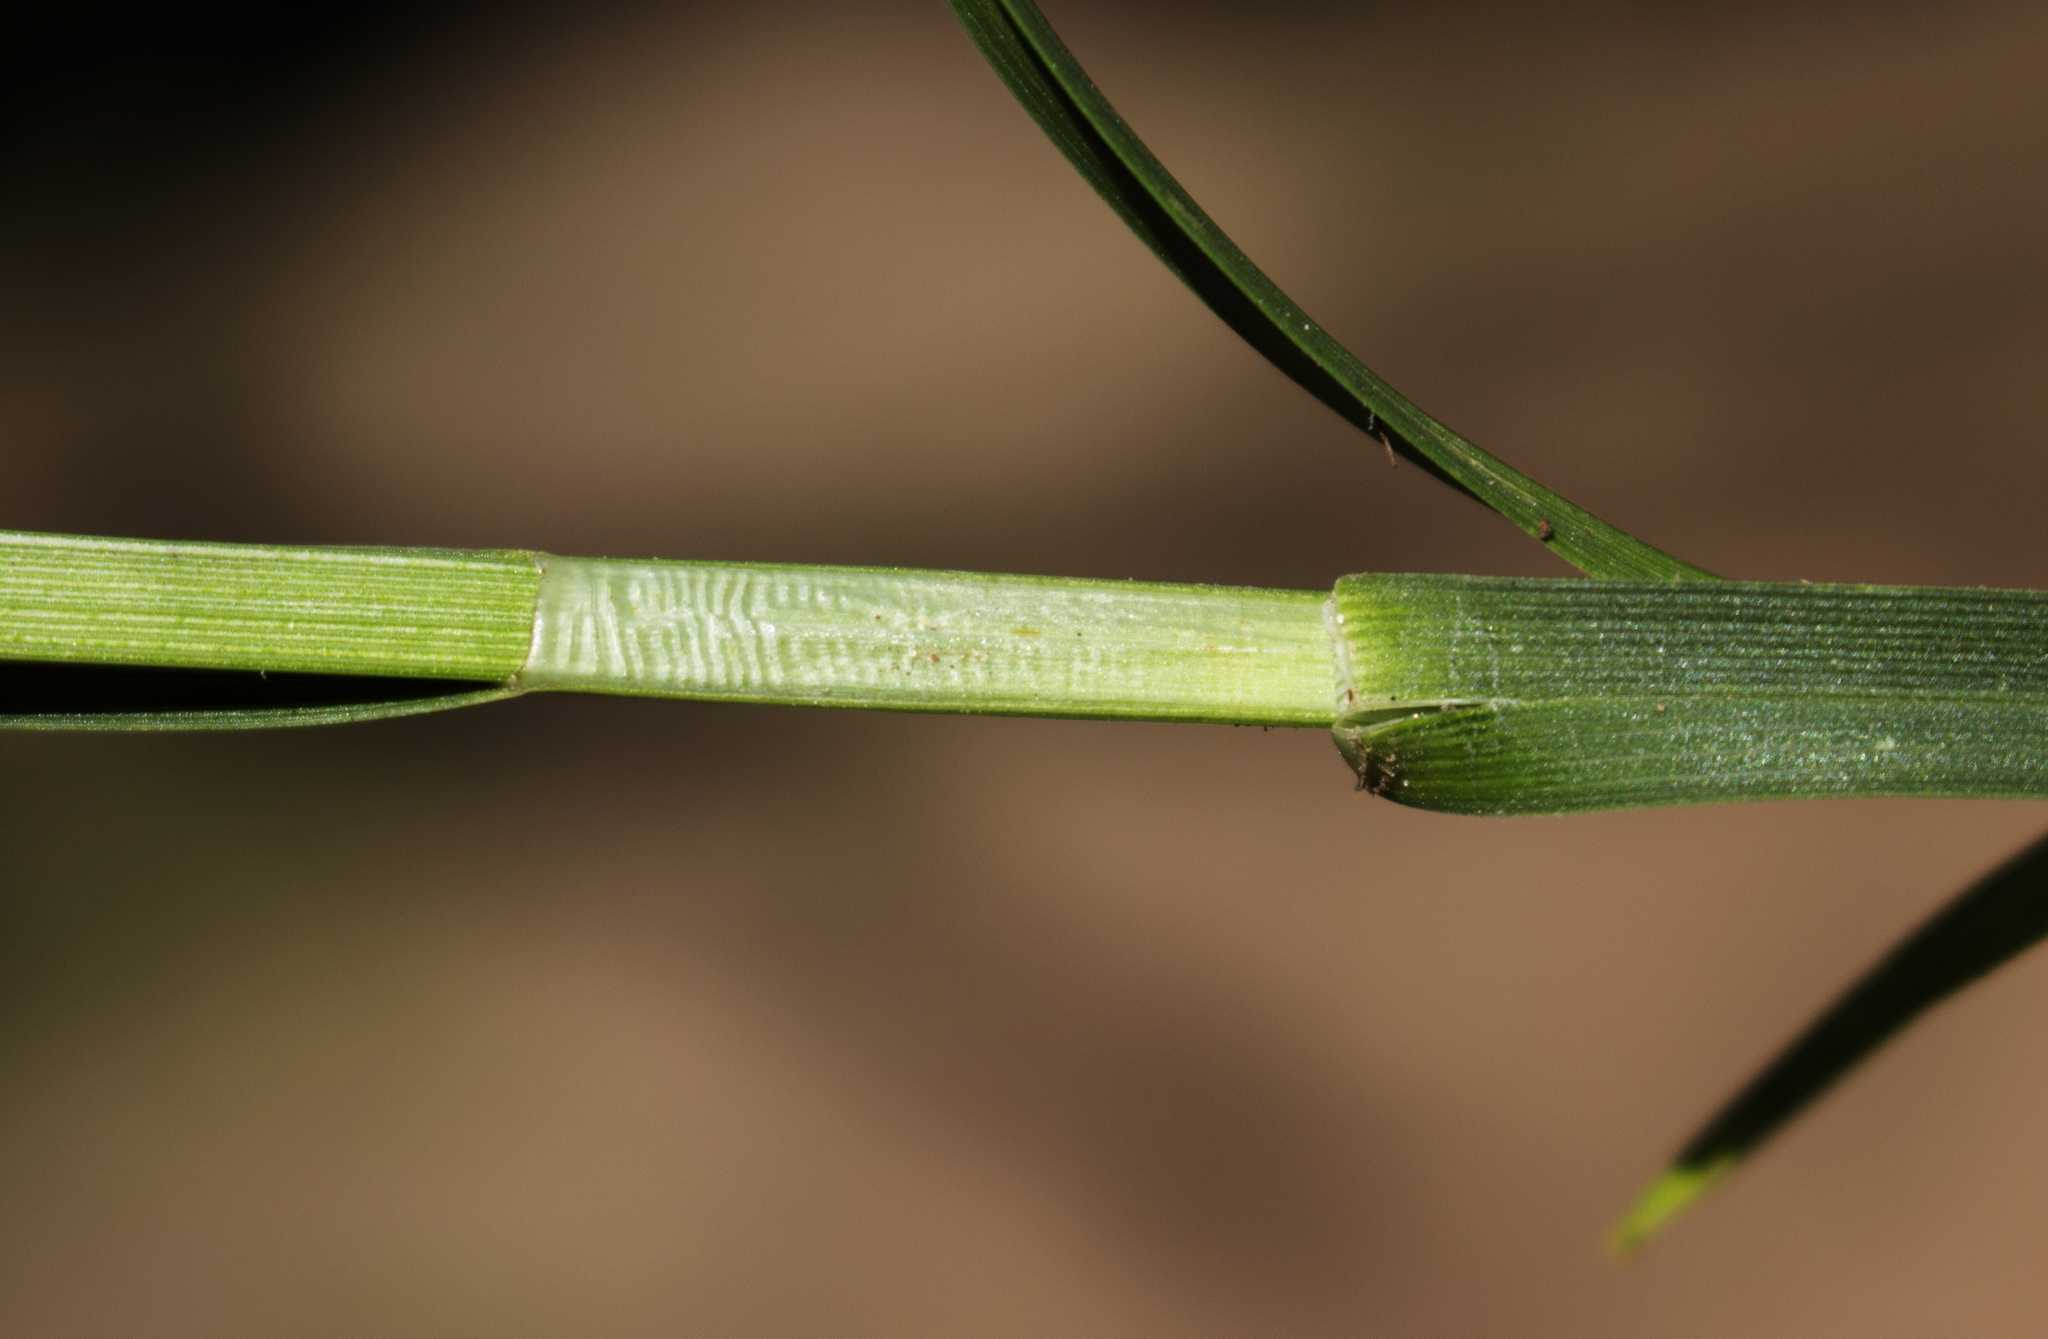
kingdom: Plantae
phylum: Tracheophyta
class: Liliopsida
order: Poales
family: Cyperaceae
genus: Carex
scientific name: Carex muehlenbergii
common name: Muhlenberg's bracted sedge
